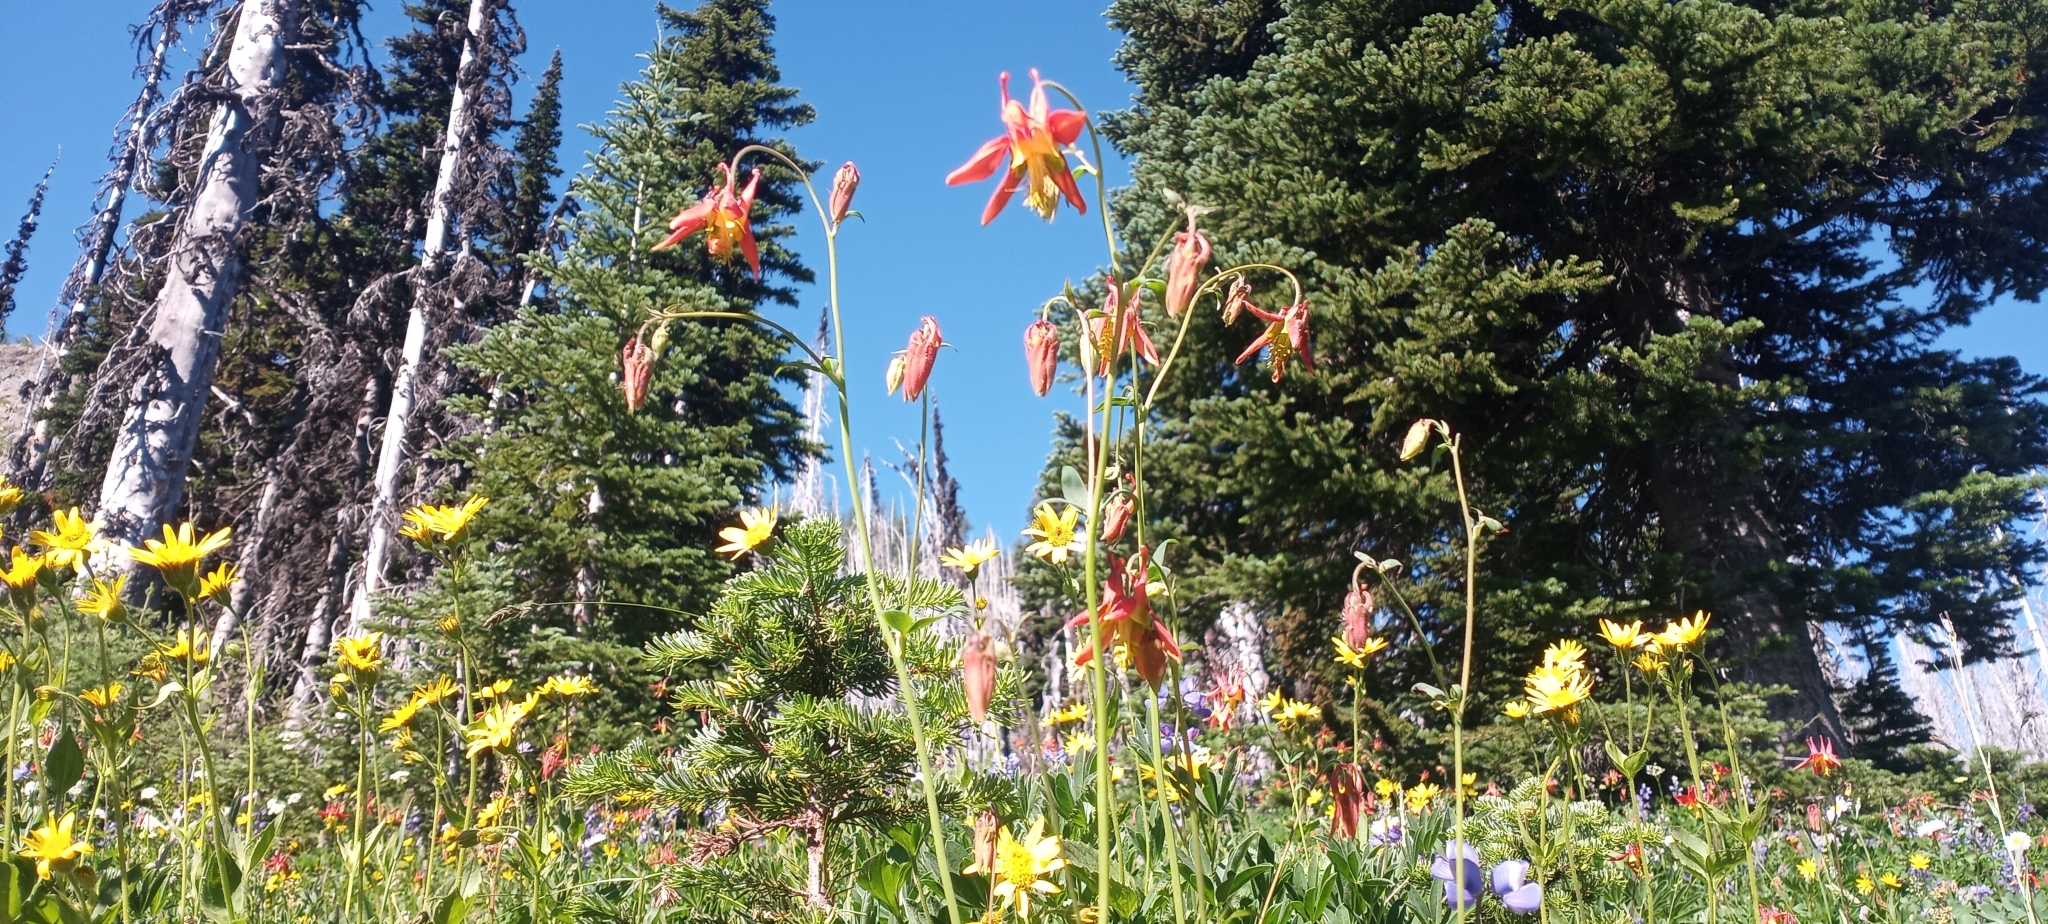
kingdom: Plantae
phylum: Tracheophyta
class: Magnoliopsida
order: Ranunculales
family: Ranunculaceae
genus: Aquilegia
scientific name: Aquilegia formosa
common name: Sitka columbine
